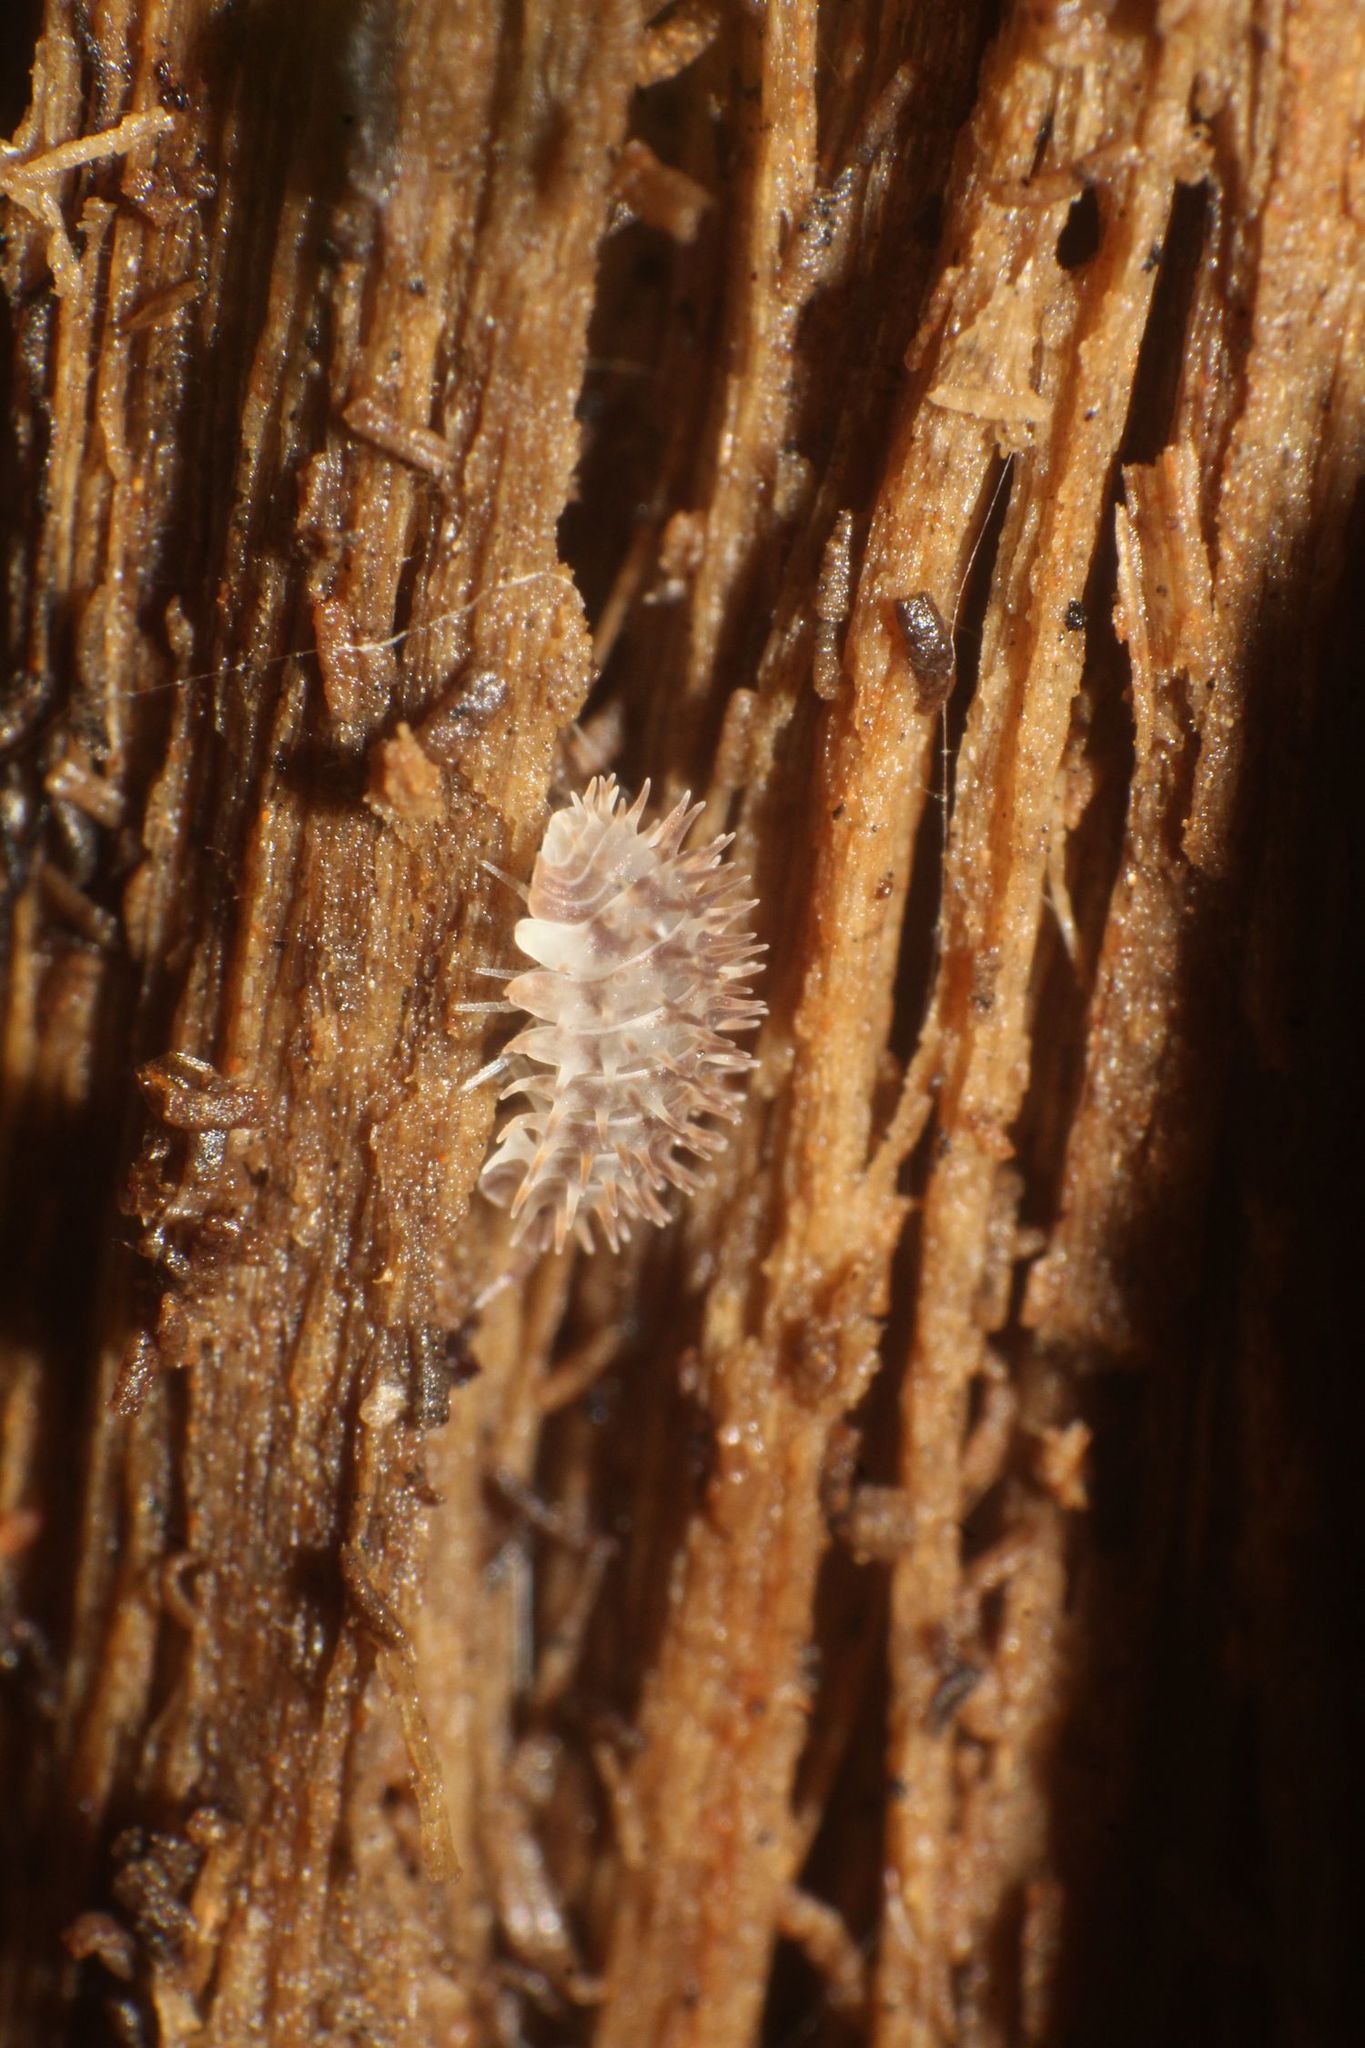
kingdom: Animalia
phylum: Arthropoda
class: Malacostraca
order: Isopoda
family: Armadillidae
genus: Pseudolaureola
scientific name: Pseudolaureola wilsmorei
